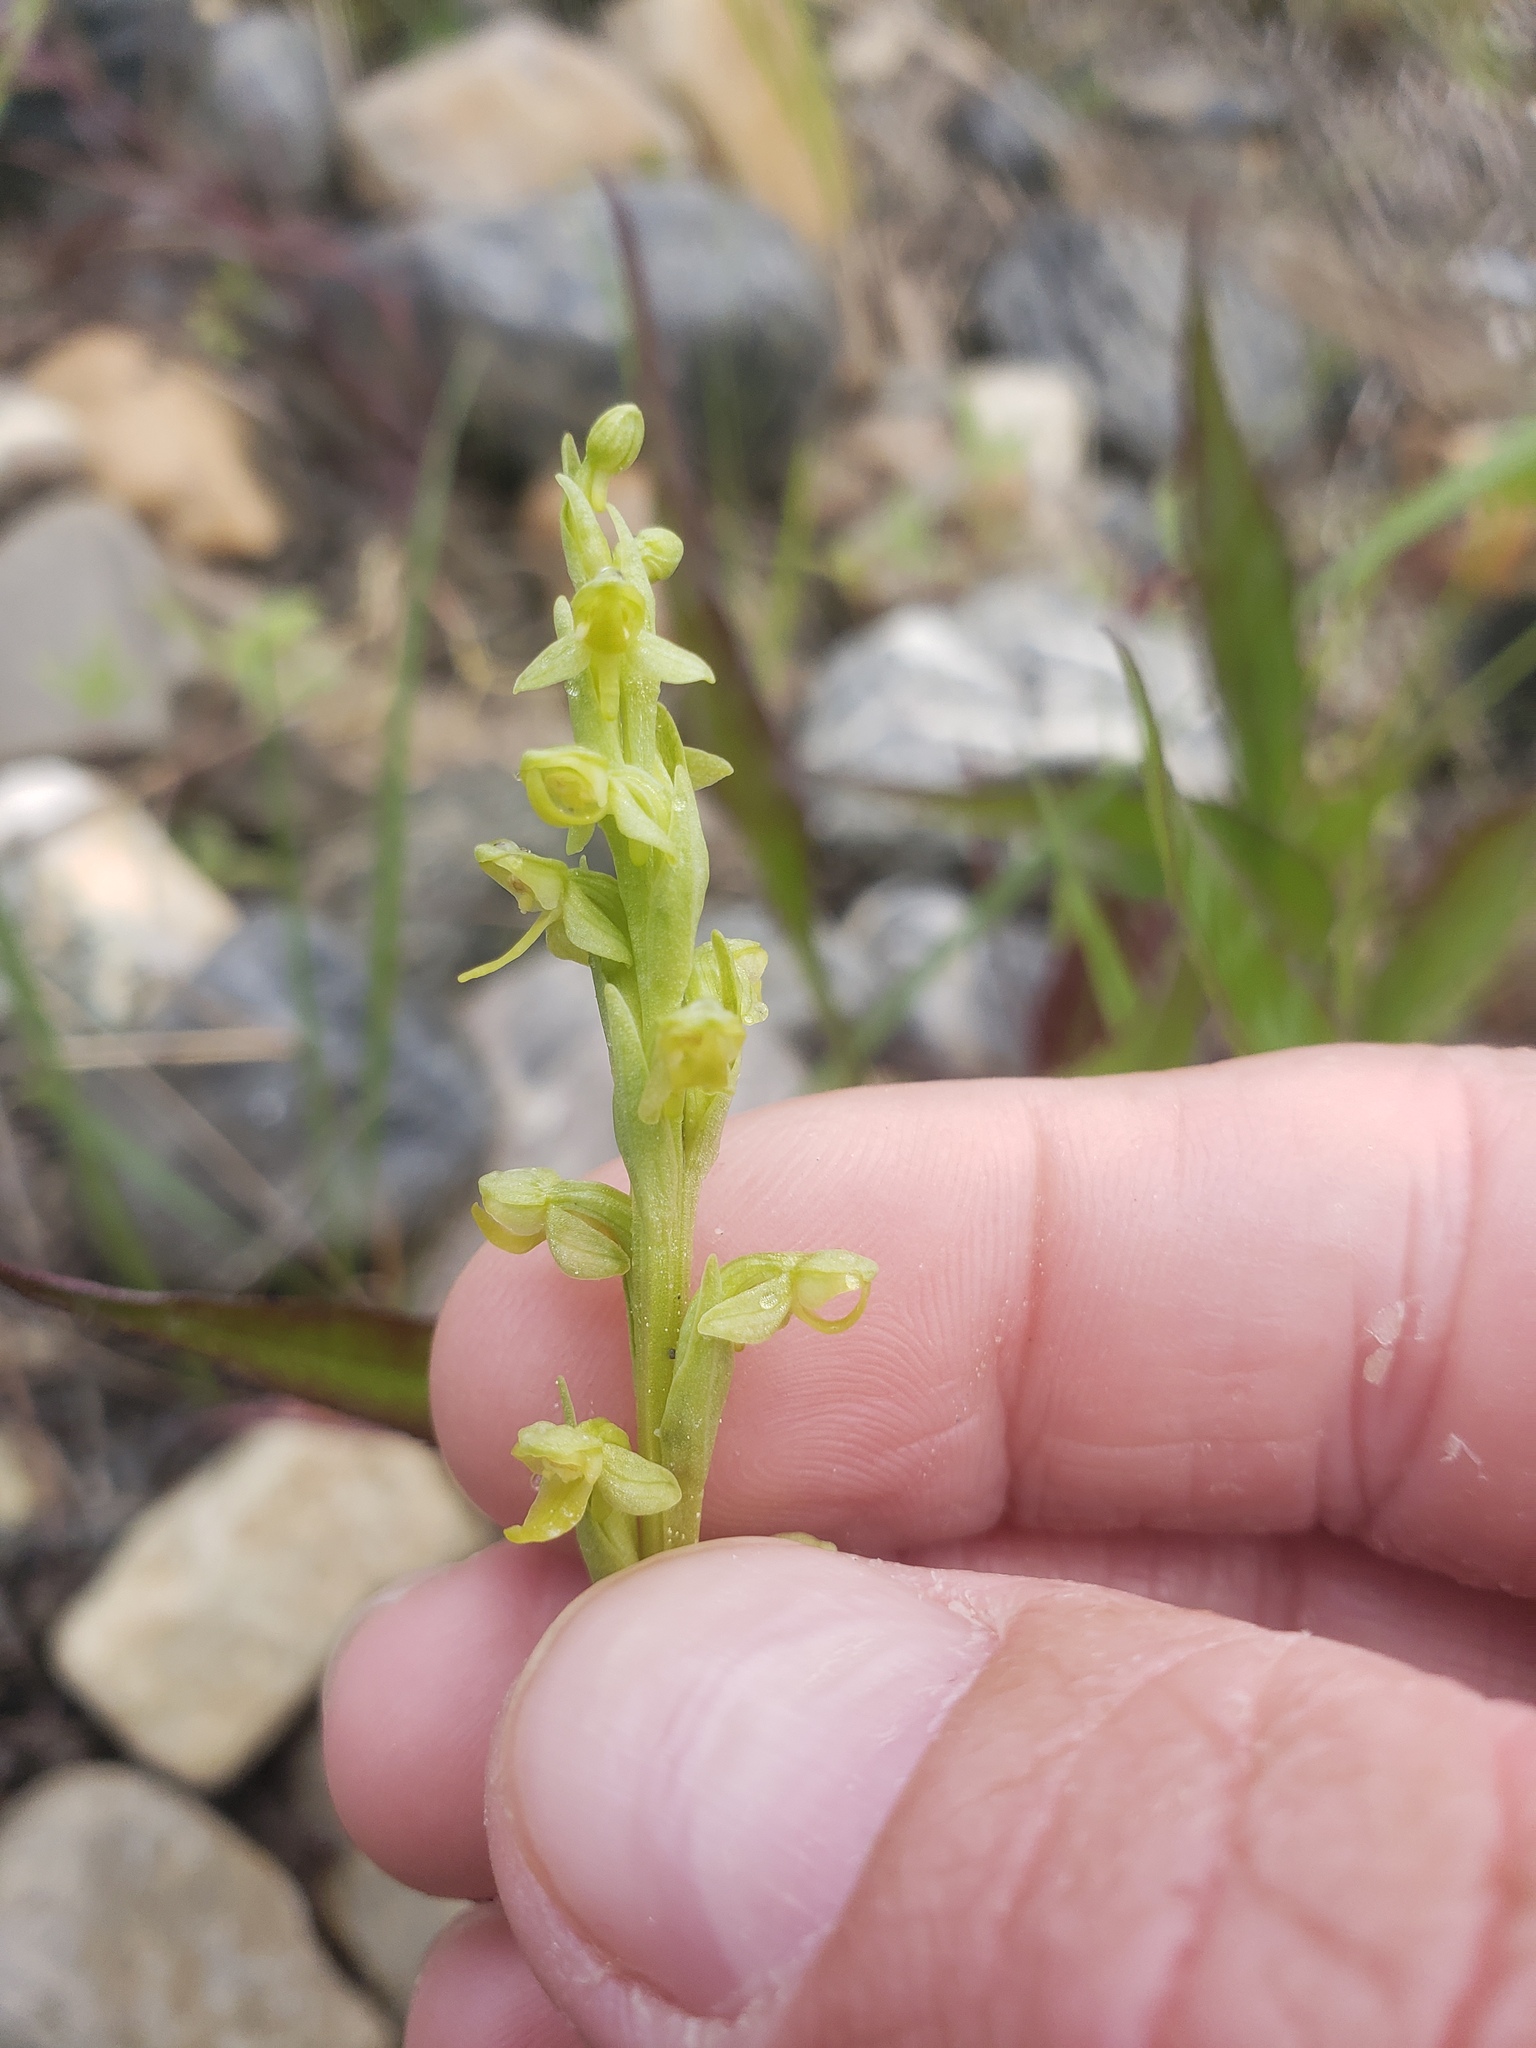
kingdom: Plantae
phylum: Tracheophyta
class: Liliopsida
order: Asparagales
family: Orchidaceae
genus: Platanthera
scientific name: Platanthera aquilonis
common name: Northern green orchid
